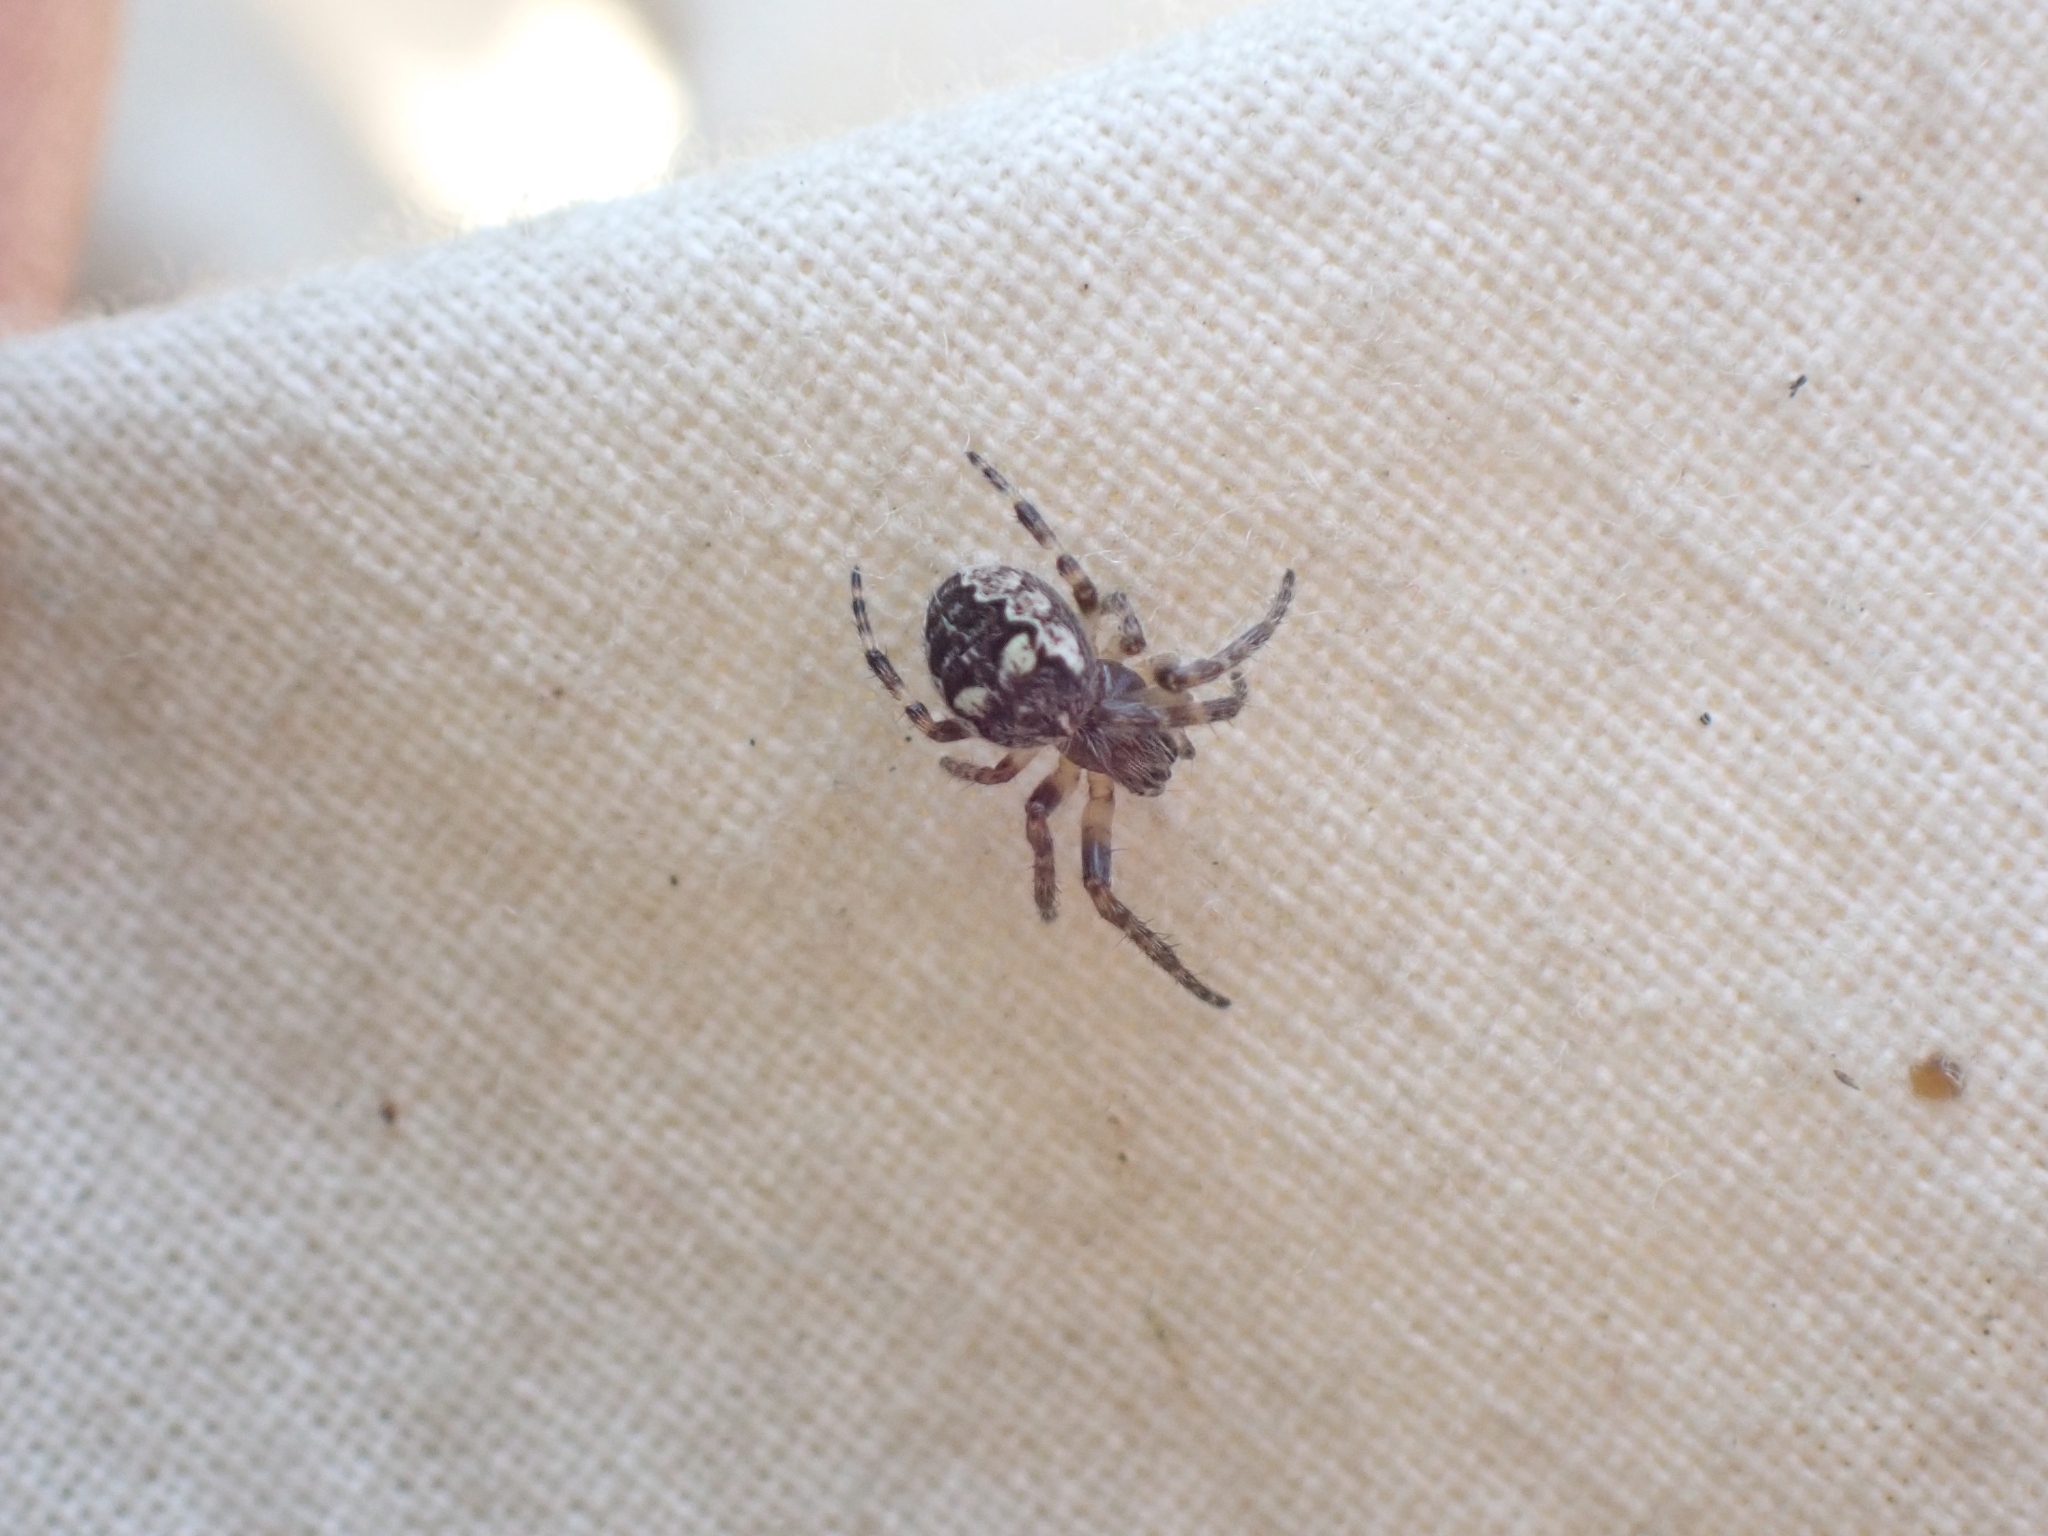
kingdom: Animalia
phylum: Arthropoda
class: Arachnida
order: Araneae
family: Araneidae
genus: Larinioides
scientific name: Larinioides patagiatus
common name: Ornamental orbweaver
